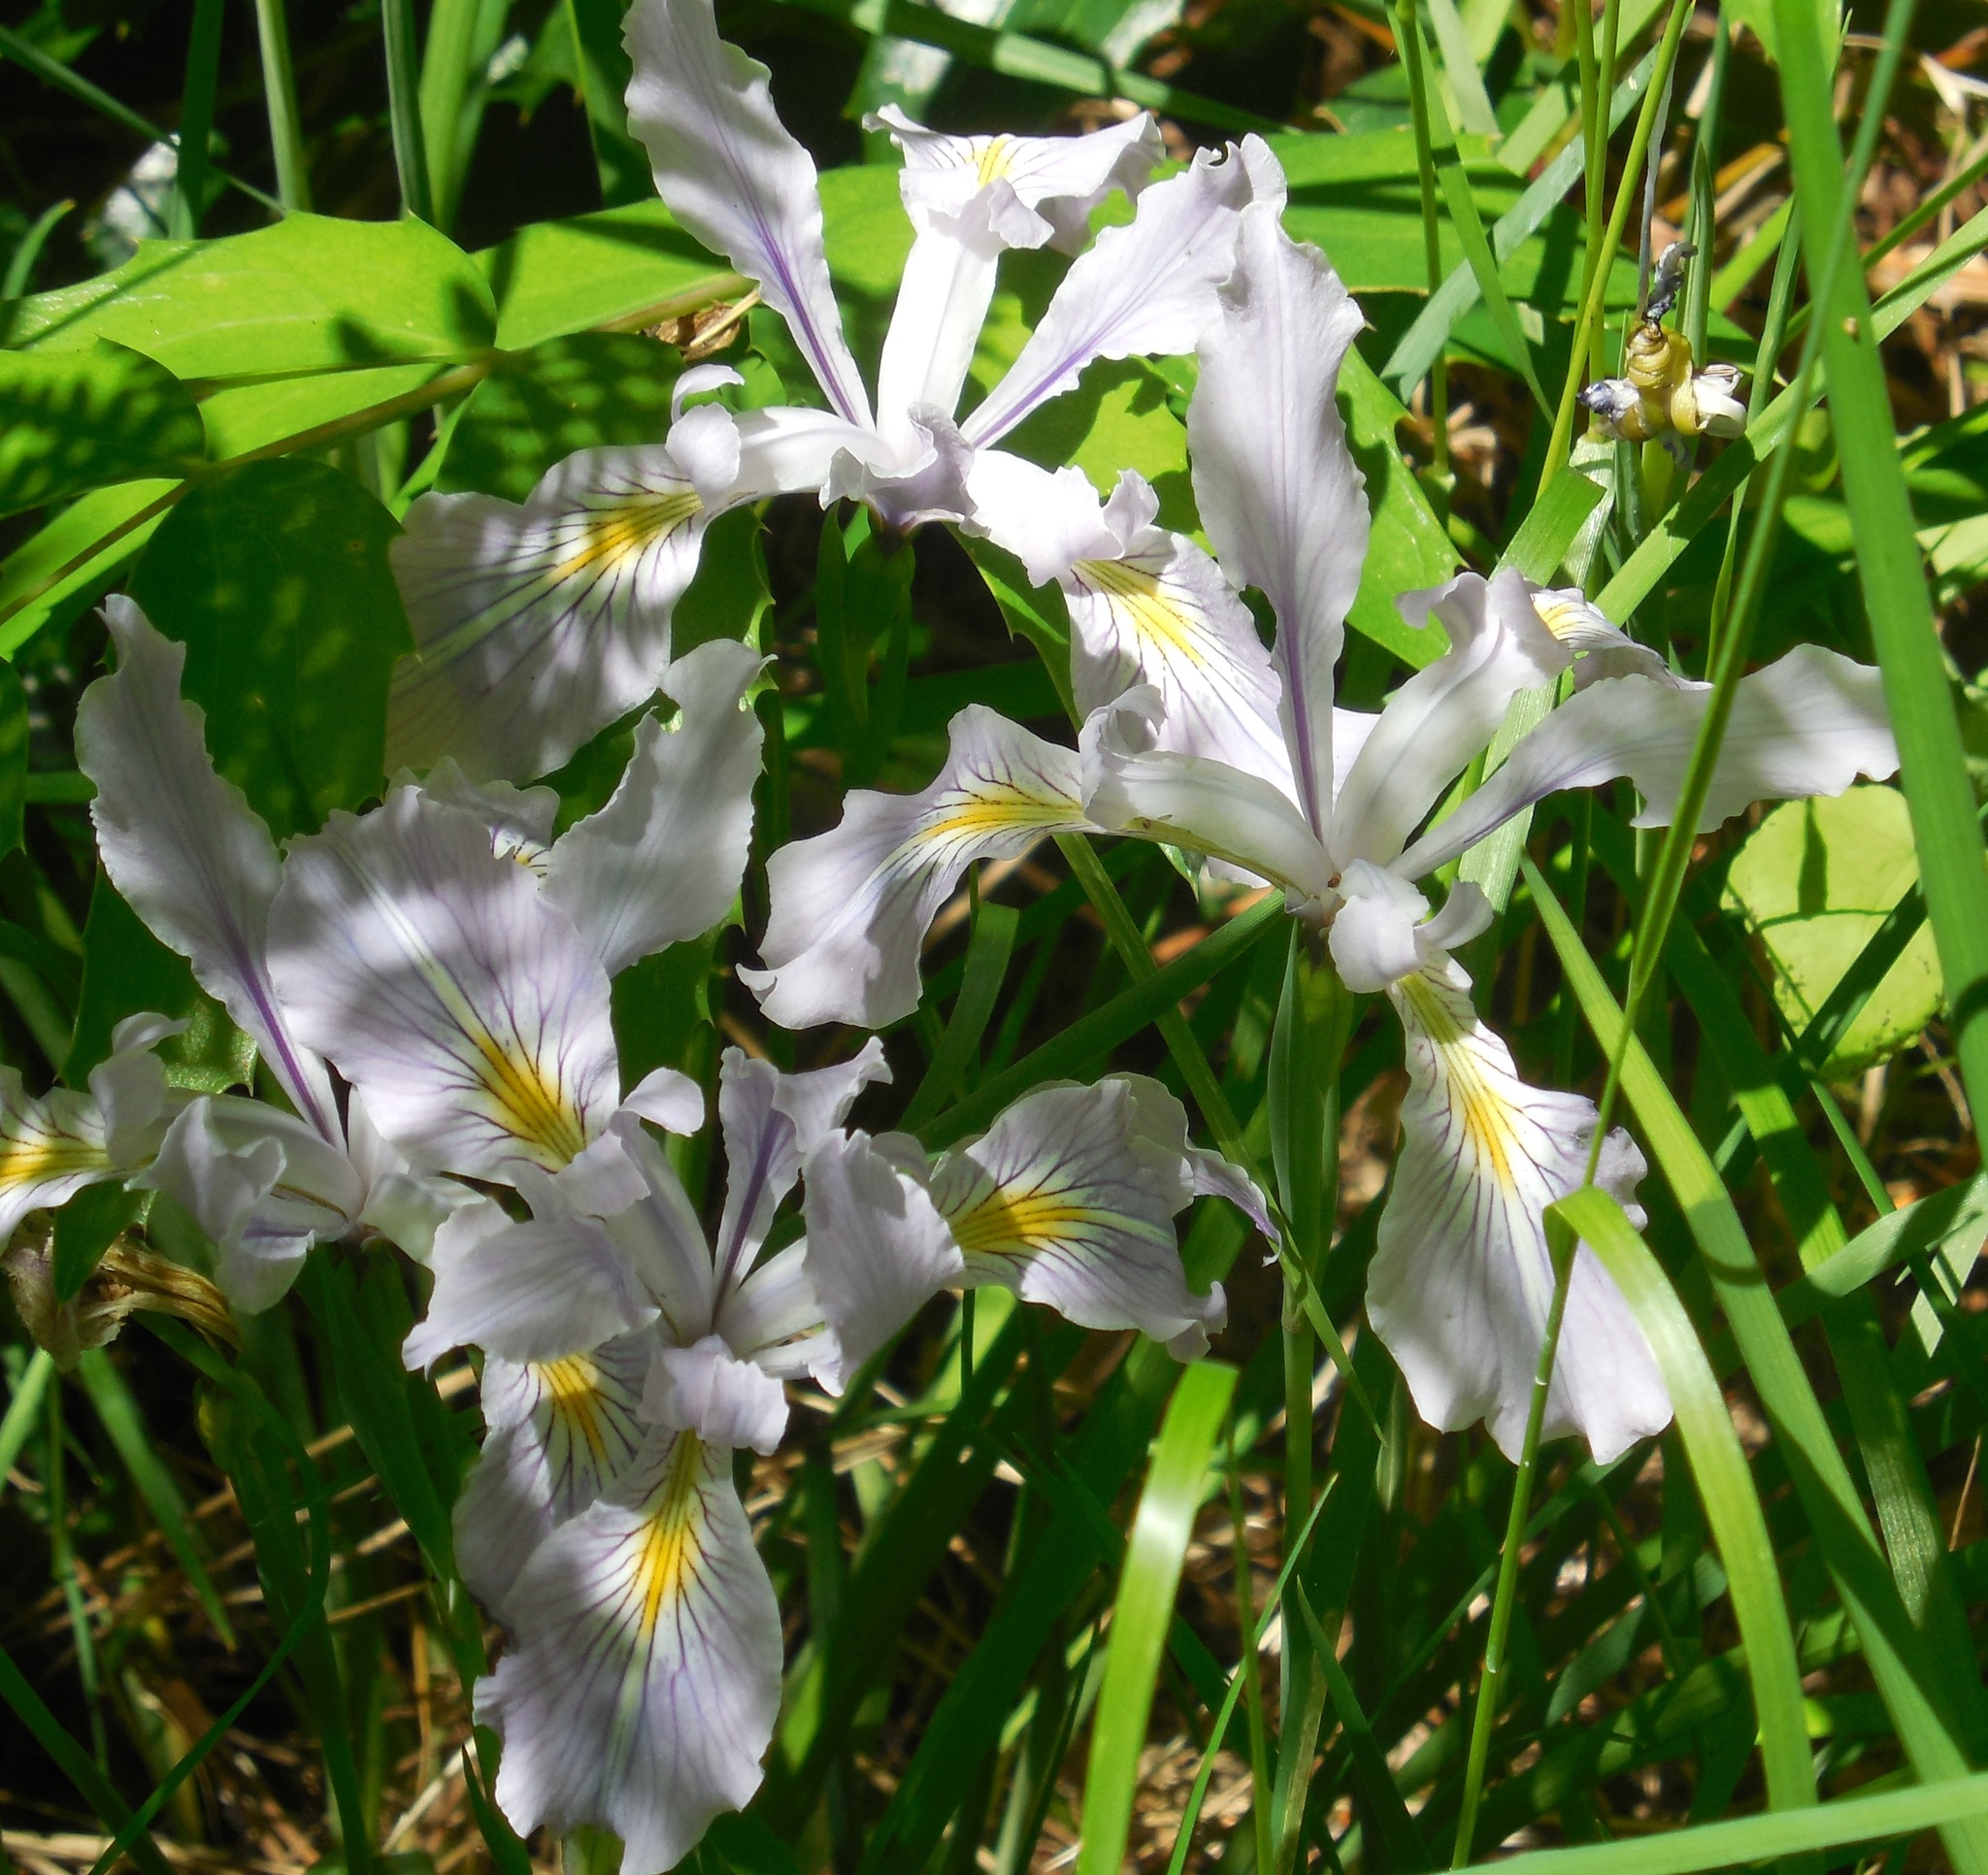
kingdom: Plantae
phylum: Tracheophyta
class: Liliopsida
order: Asparagales
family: Iridaceae
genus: Iris
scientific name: Iris tenax
